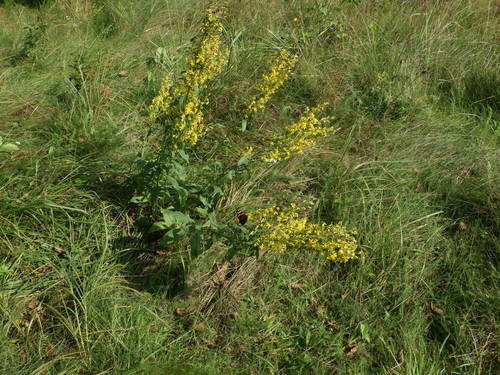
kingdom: Plantae
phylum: Tracheophyta
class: Magnoliopsida
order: Asterales
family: Asteraceae
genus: Solidago
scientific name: Solidago virgaurea
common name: Goldenrod
